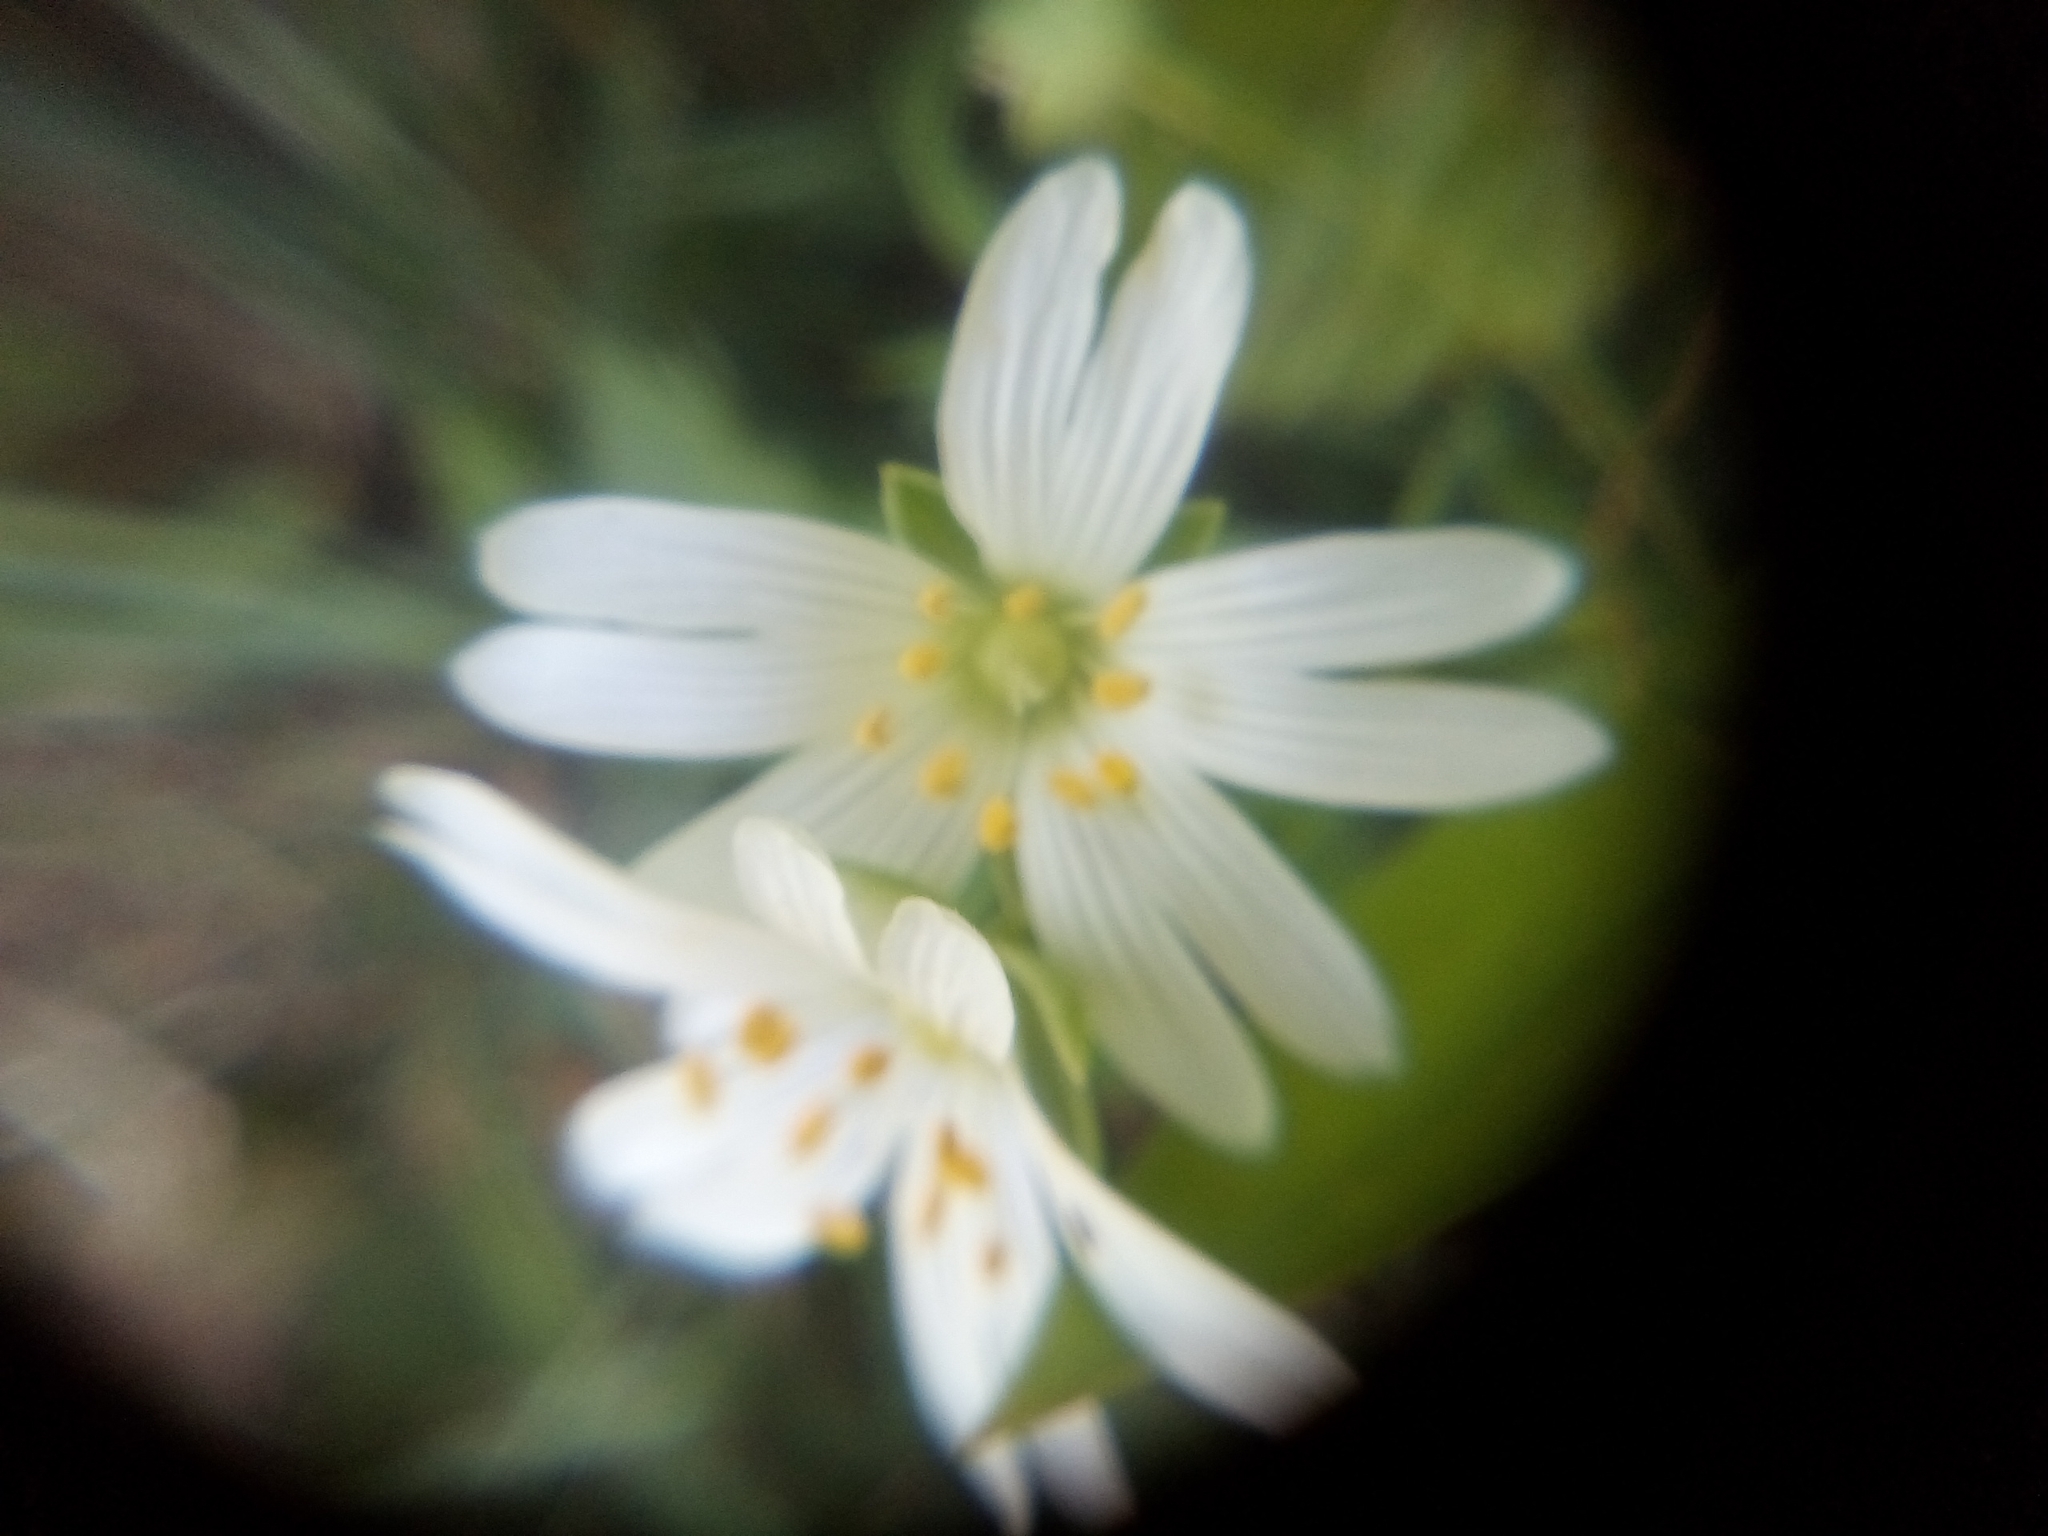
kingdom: Plantae
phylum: Tracheophyta
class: Magnoliopsida
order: Caryophyllales
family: Caryophyllaceae
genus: Rabelera
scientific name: Rabelera holostea
